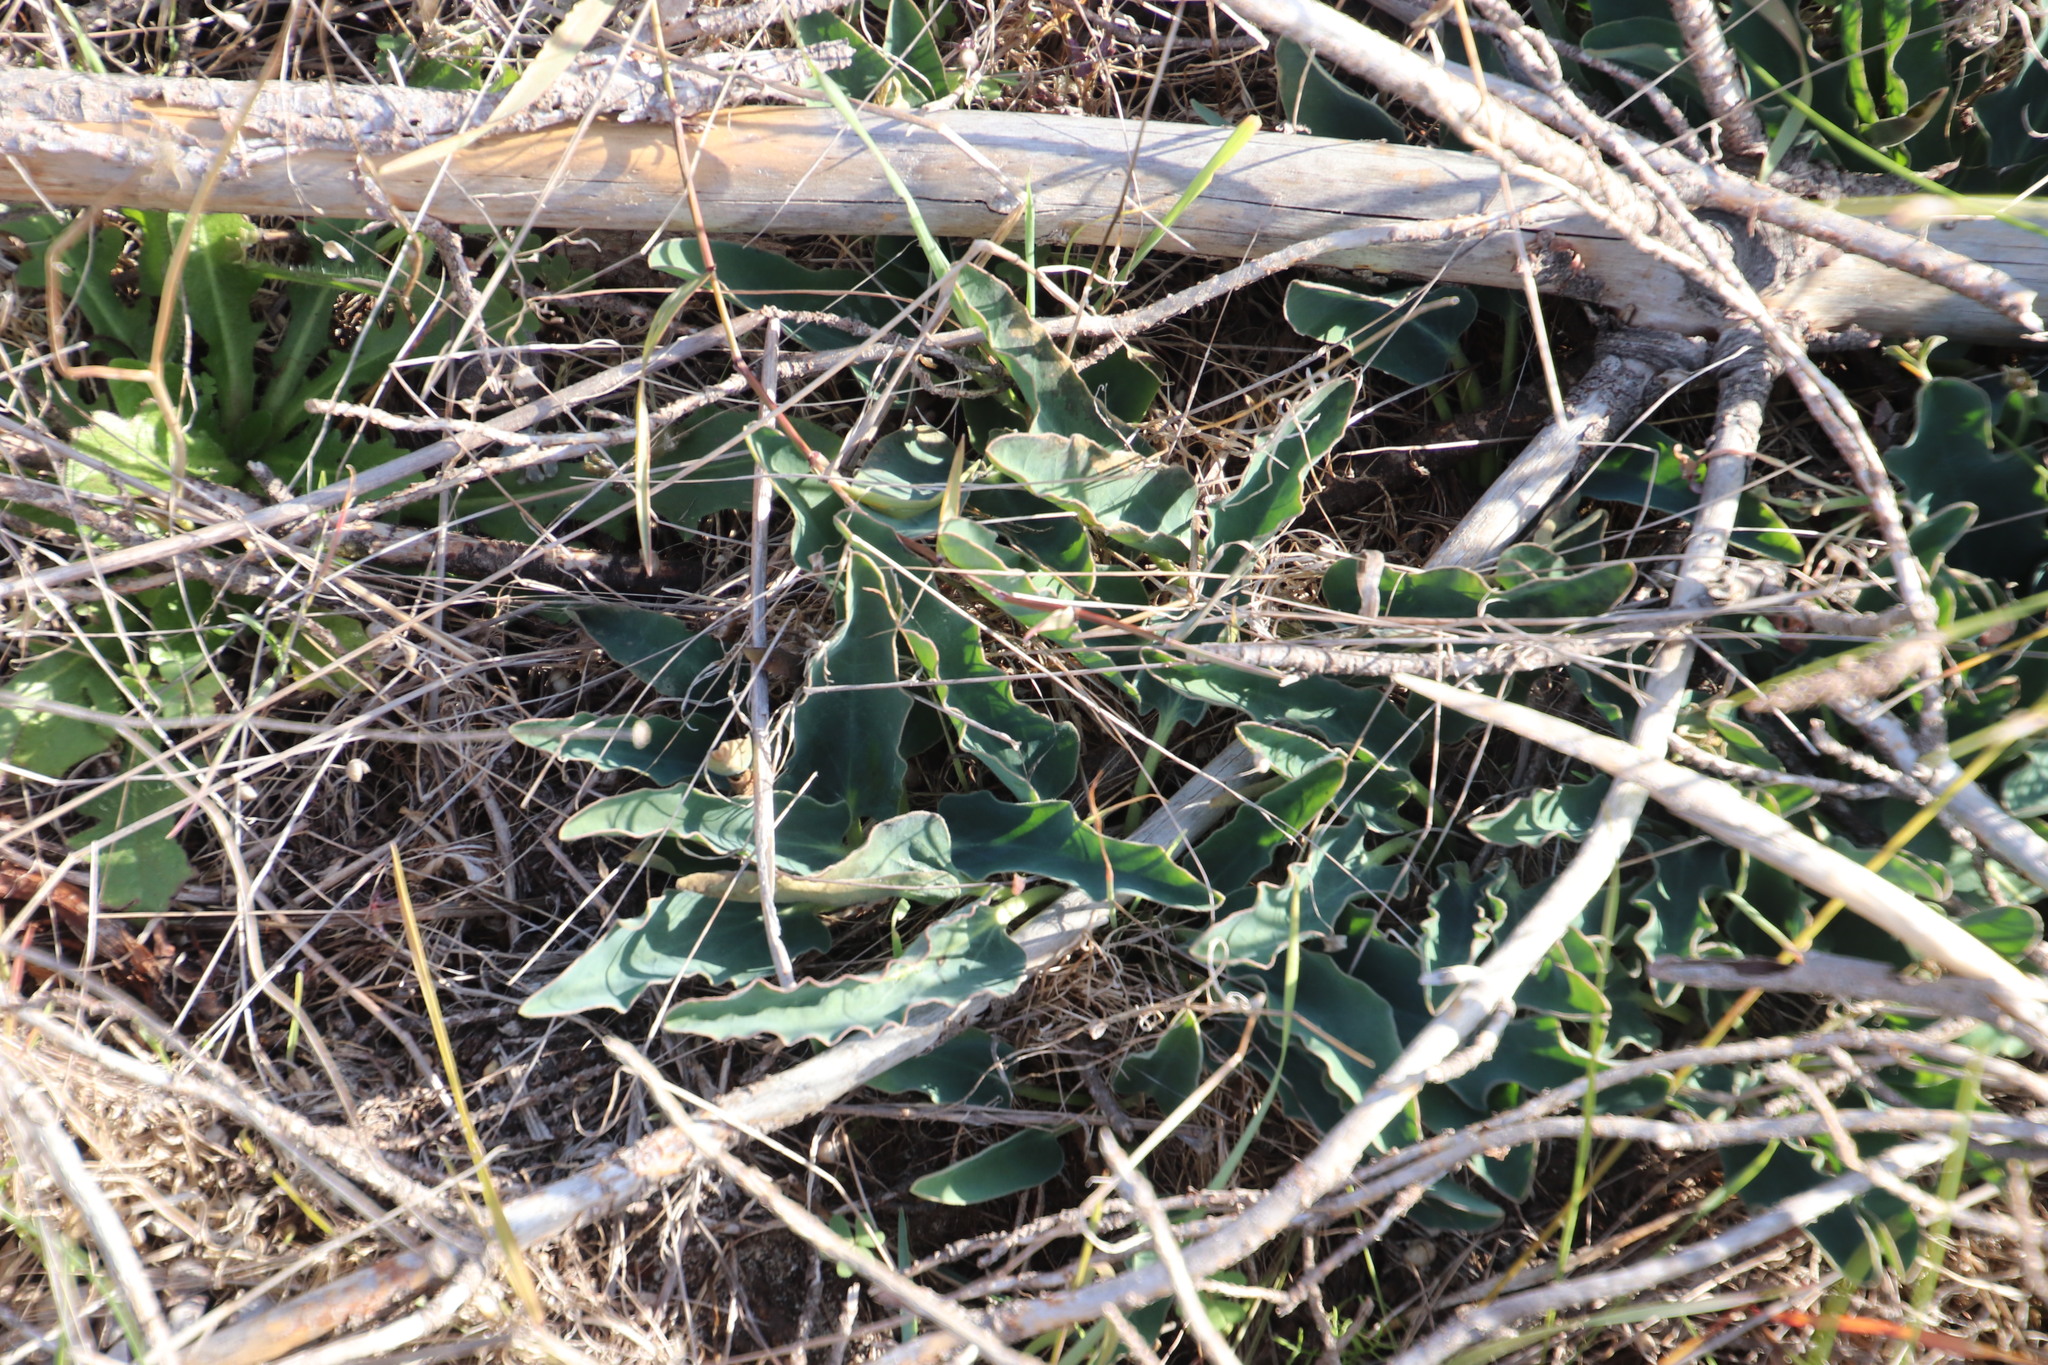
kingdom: Plantae
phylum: Tracheophyta
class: Magnoliopsida
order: Malpighiales
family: Euphorbiaceae
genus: Euphorbia
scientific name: Euphorbia tuberosa
